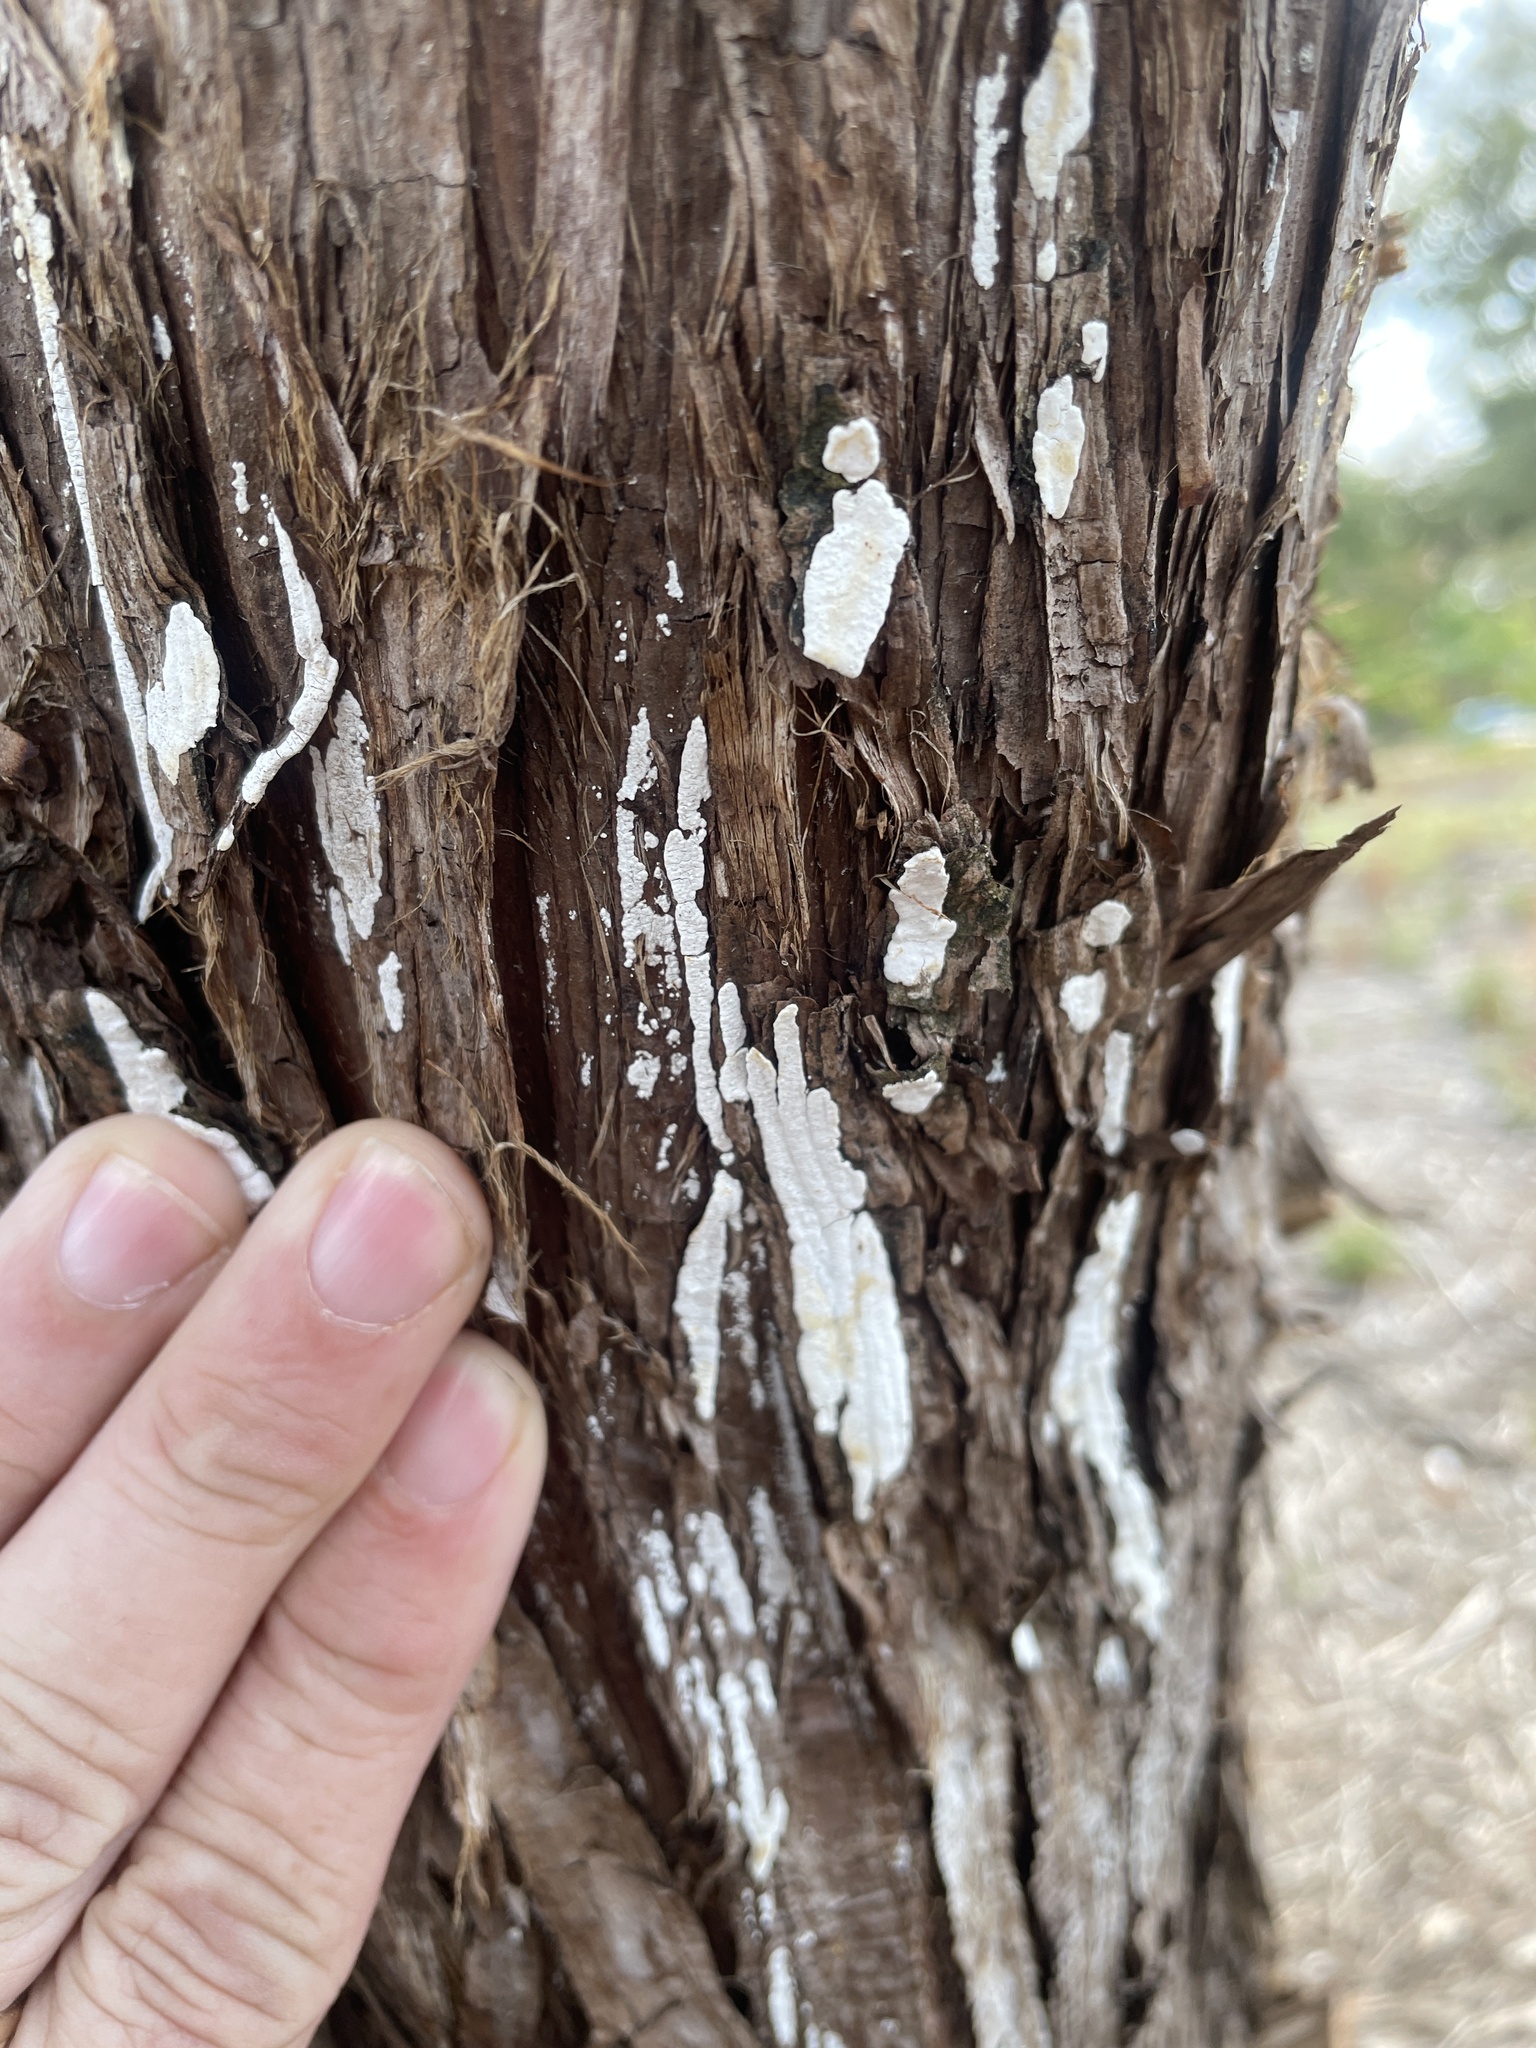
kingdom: Fungi
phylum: Basidiomycota
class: Agaricomycetes
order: Agaricales
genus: Dendrothele
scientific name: Dendrothele nivosa
